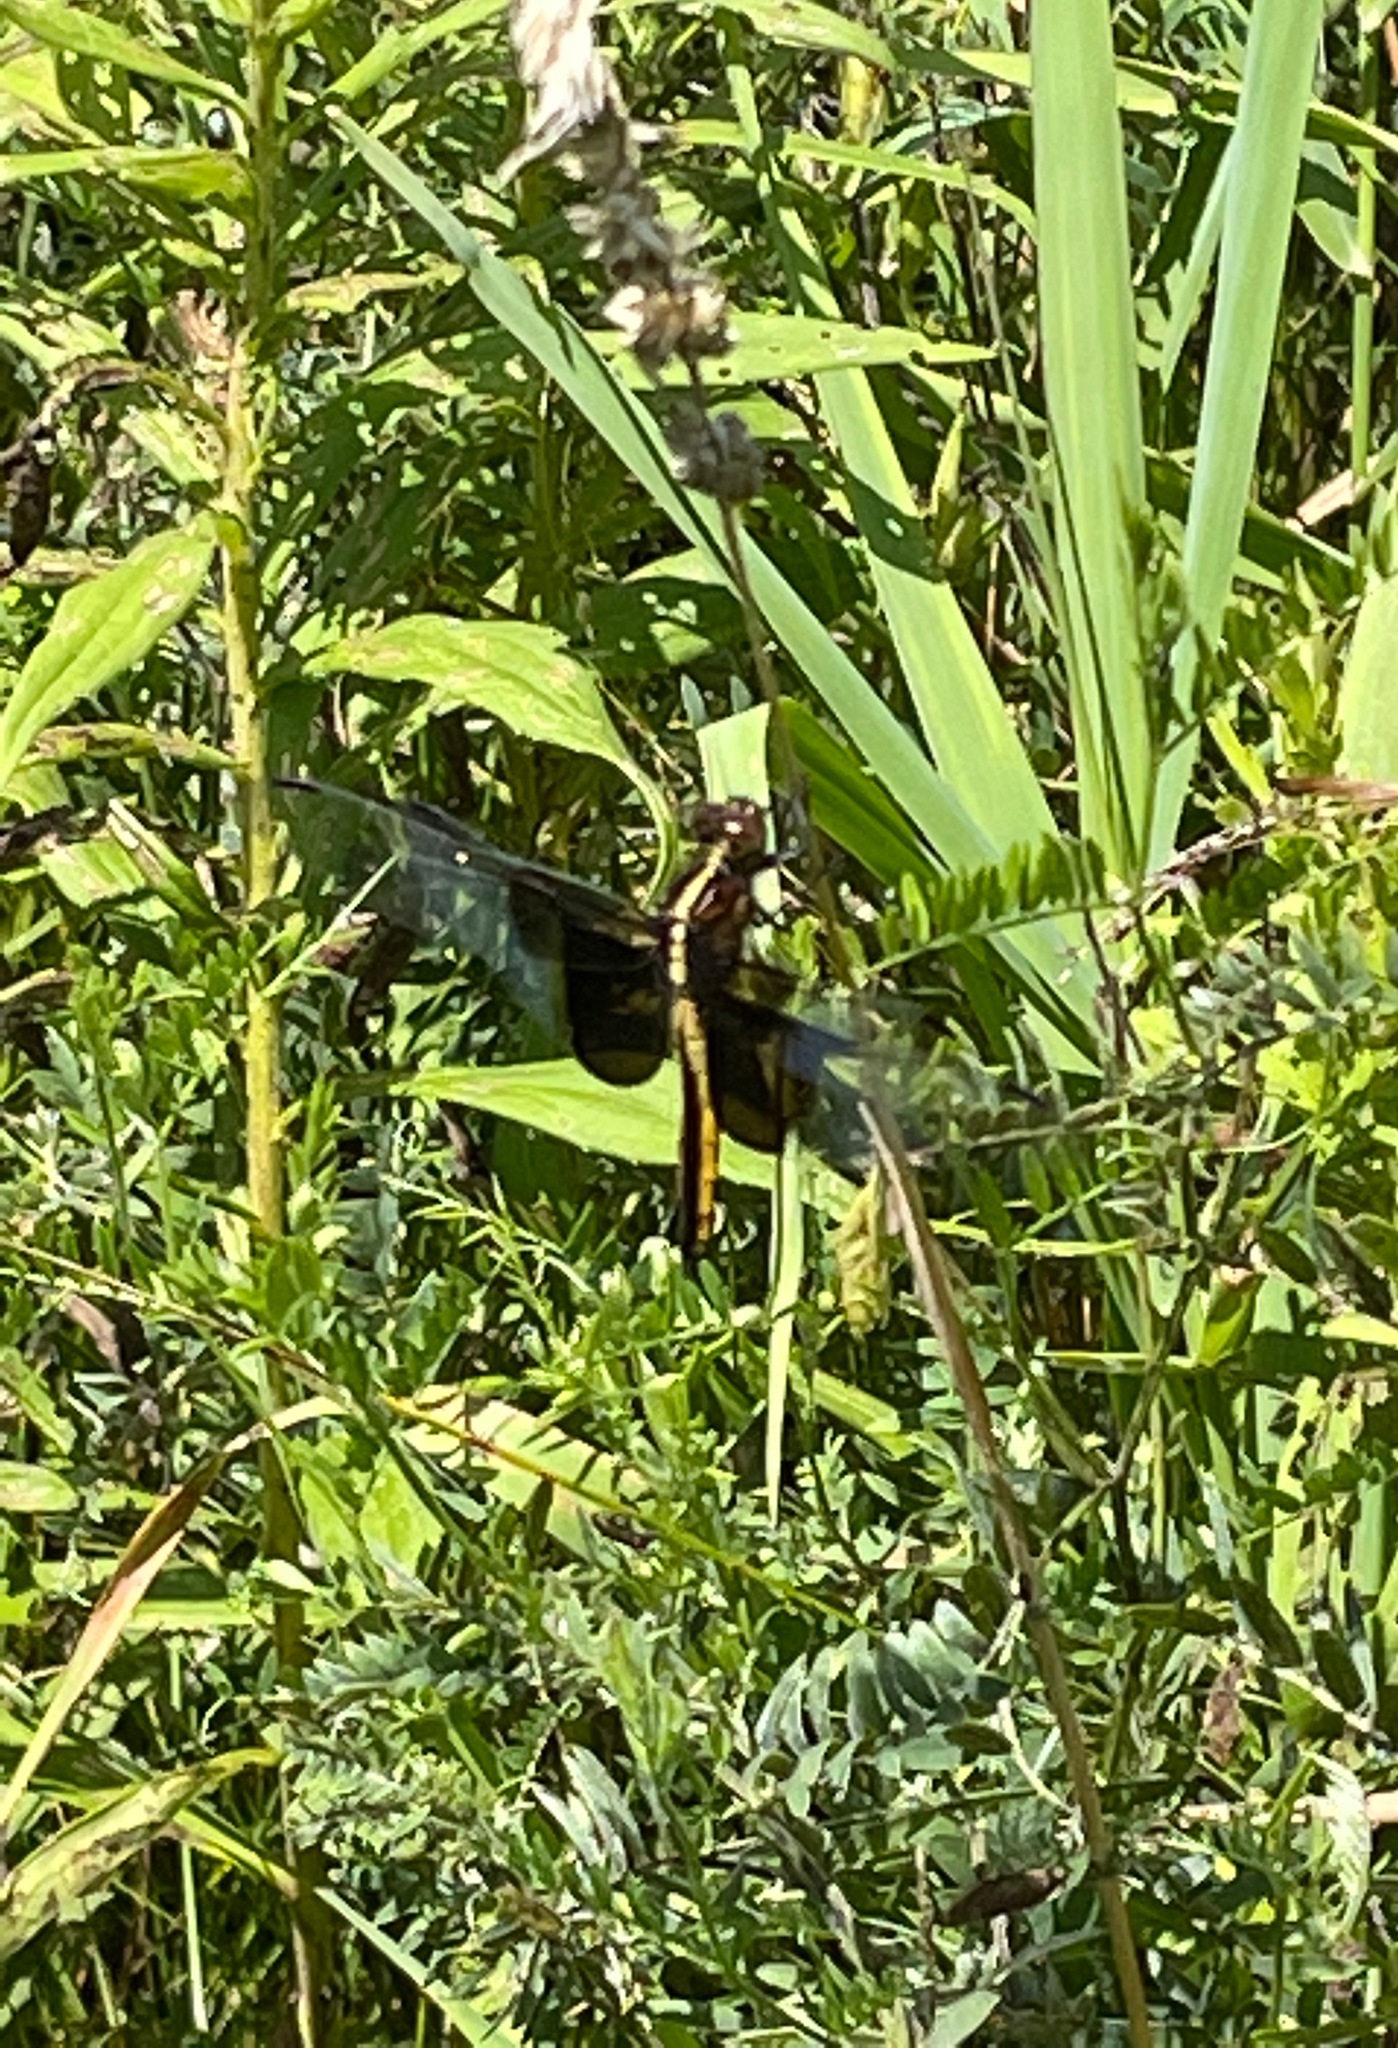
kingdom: Animalia
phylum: Arthropoda
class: Insecta
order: Odonata
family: Libellulidae
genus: Libellula
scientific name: Libellula luctuosa
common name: Widow skimmer
